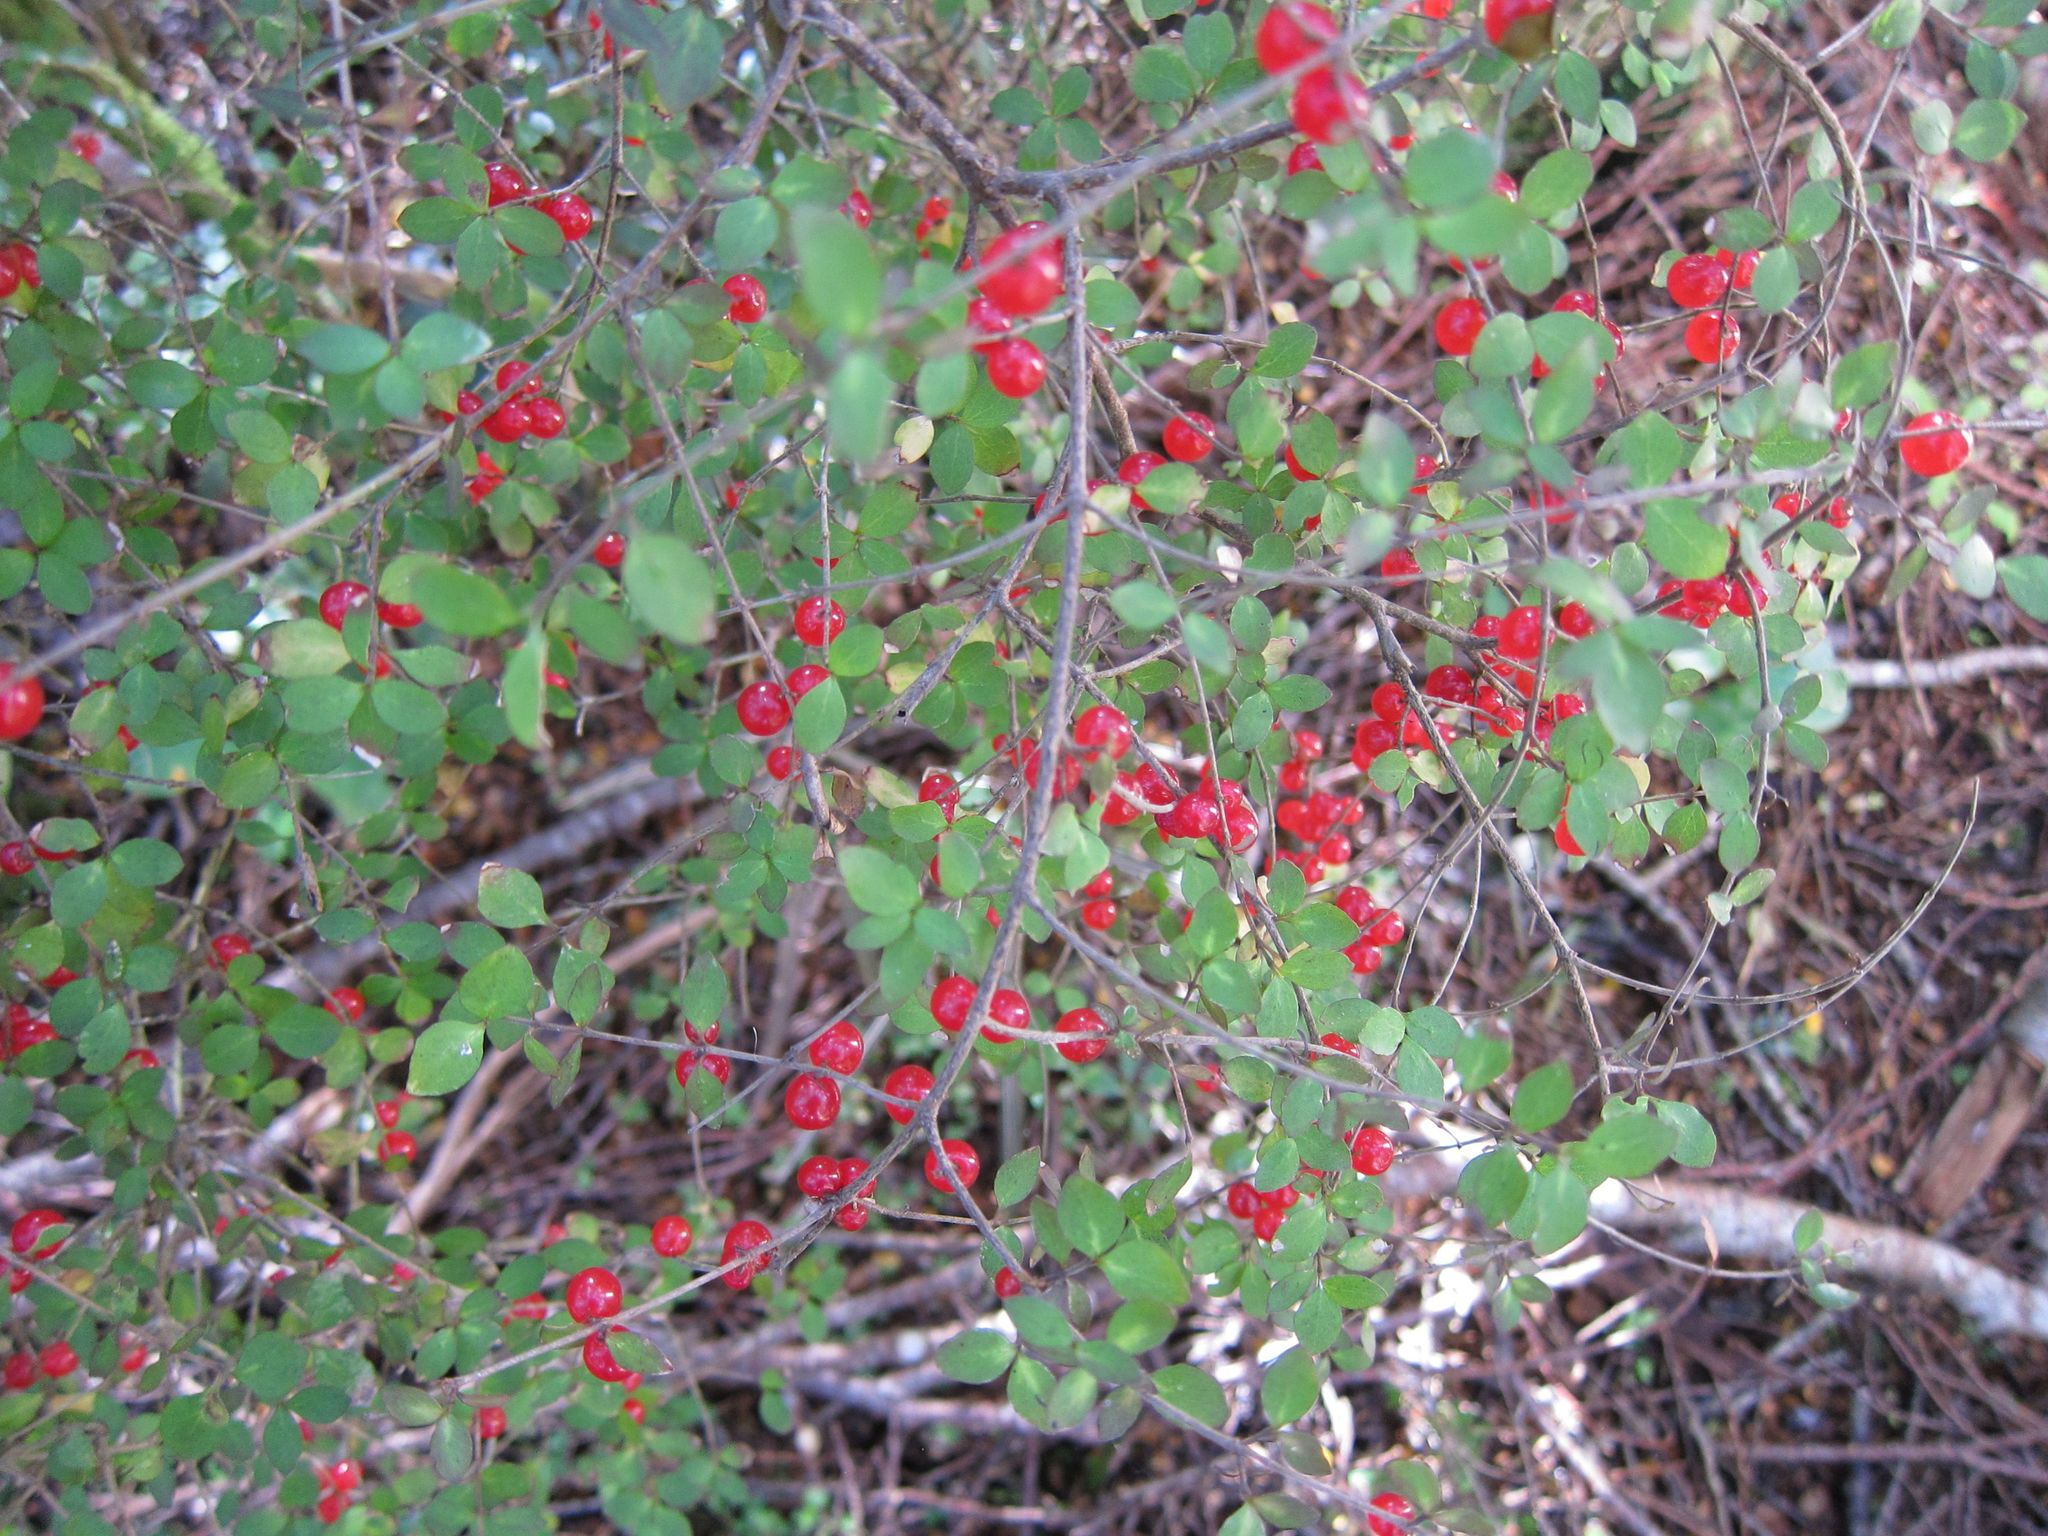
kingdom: Plantae
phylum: Tracheophyta
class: Magnoliopsida
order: Gentianales
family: Rubiaceae
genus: Coprosma
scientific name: Coprosma rhamnoides
